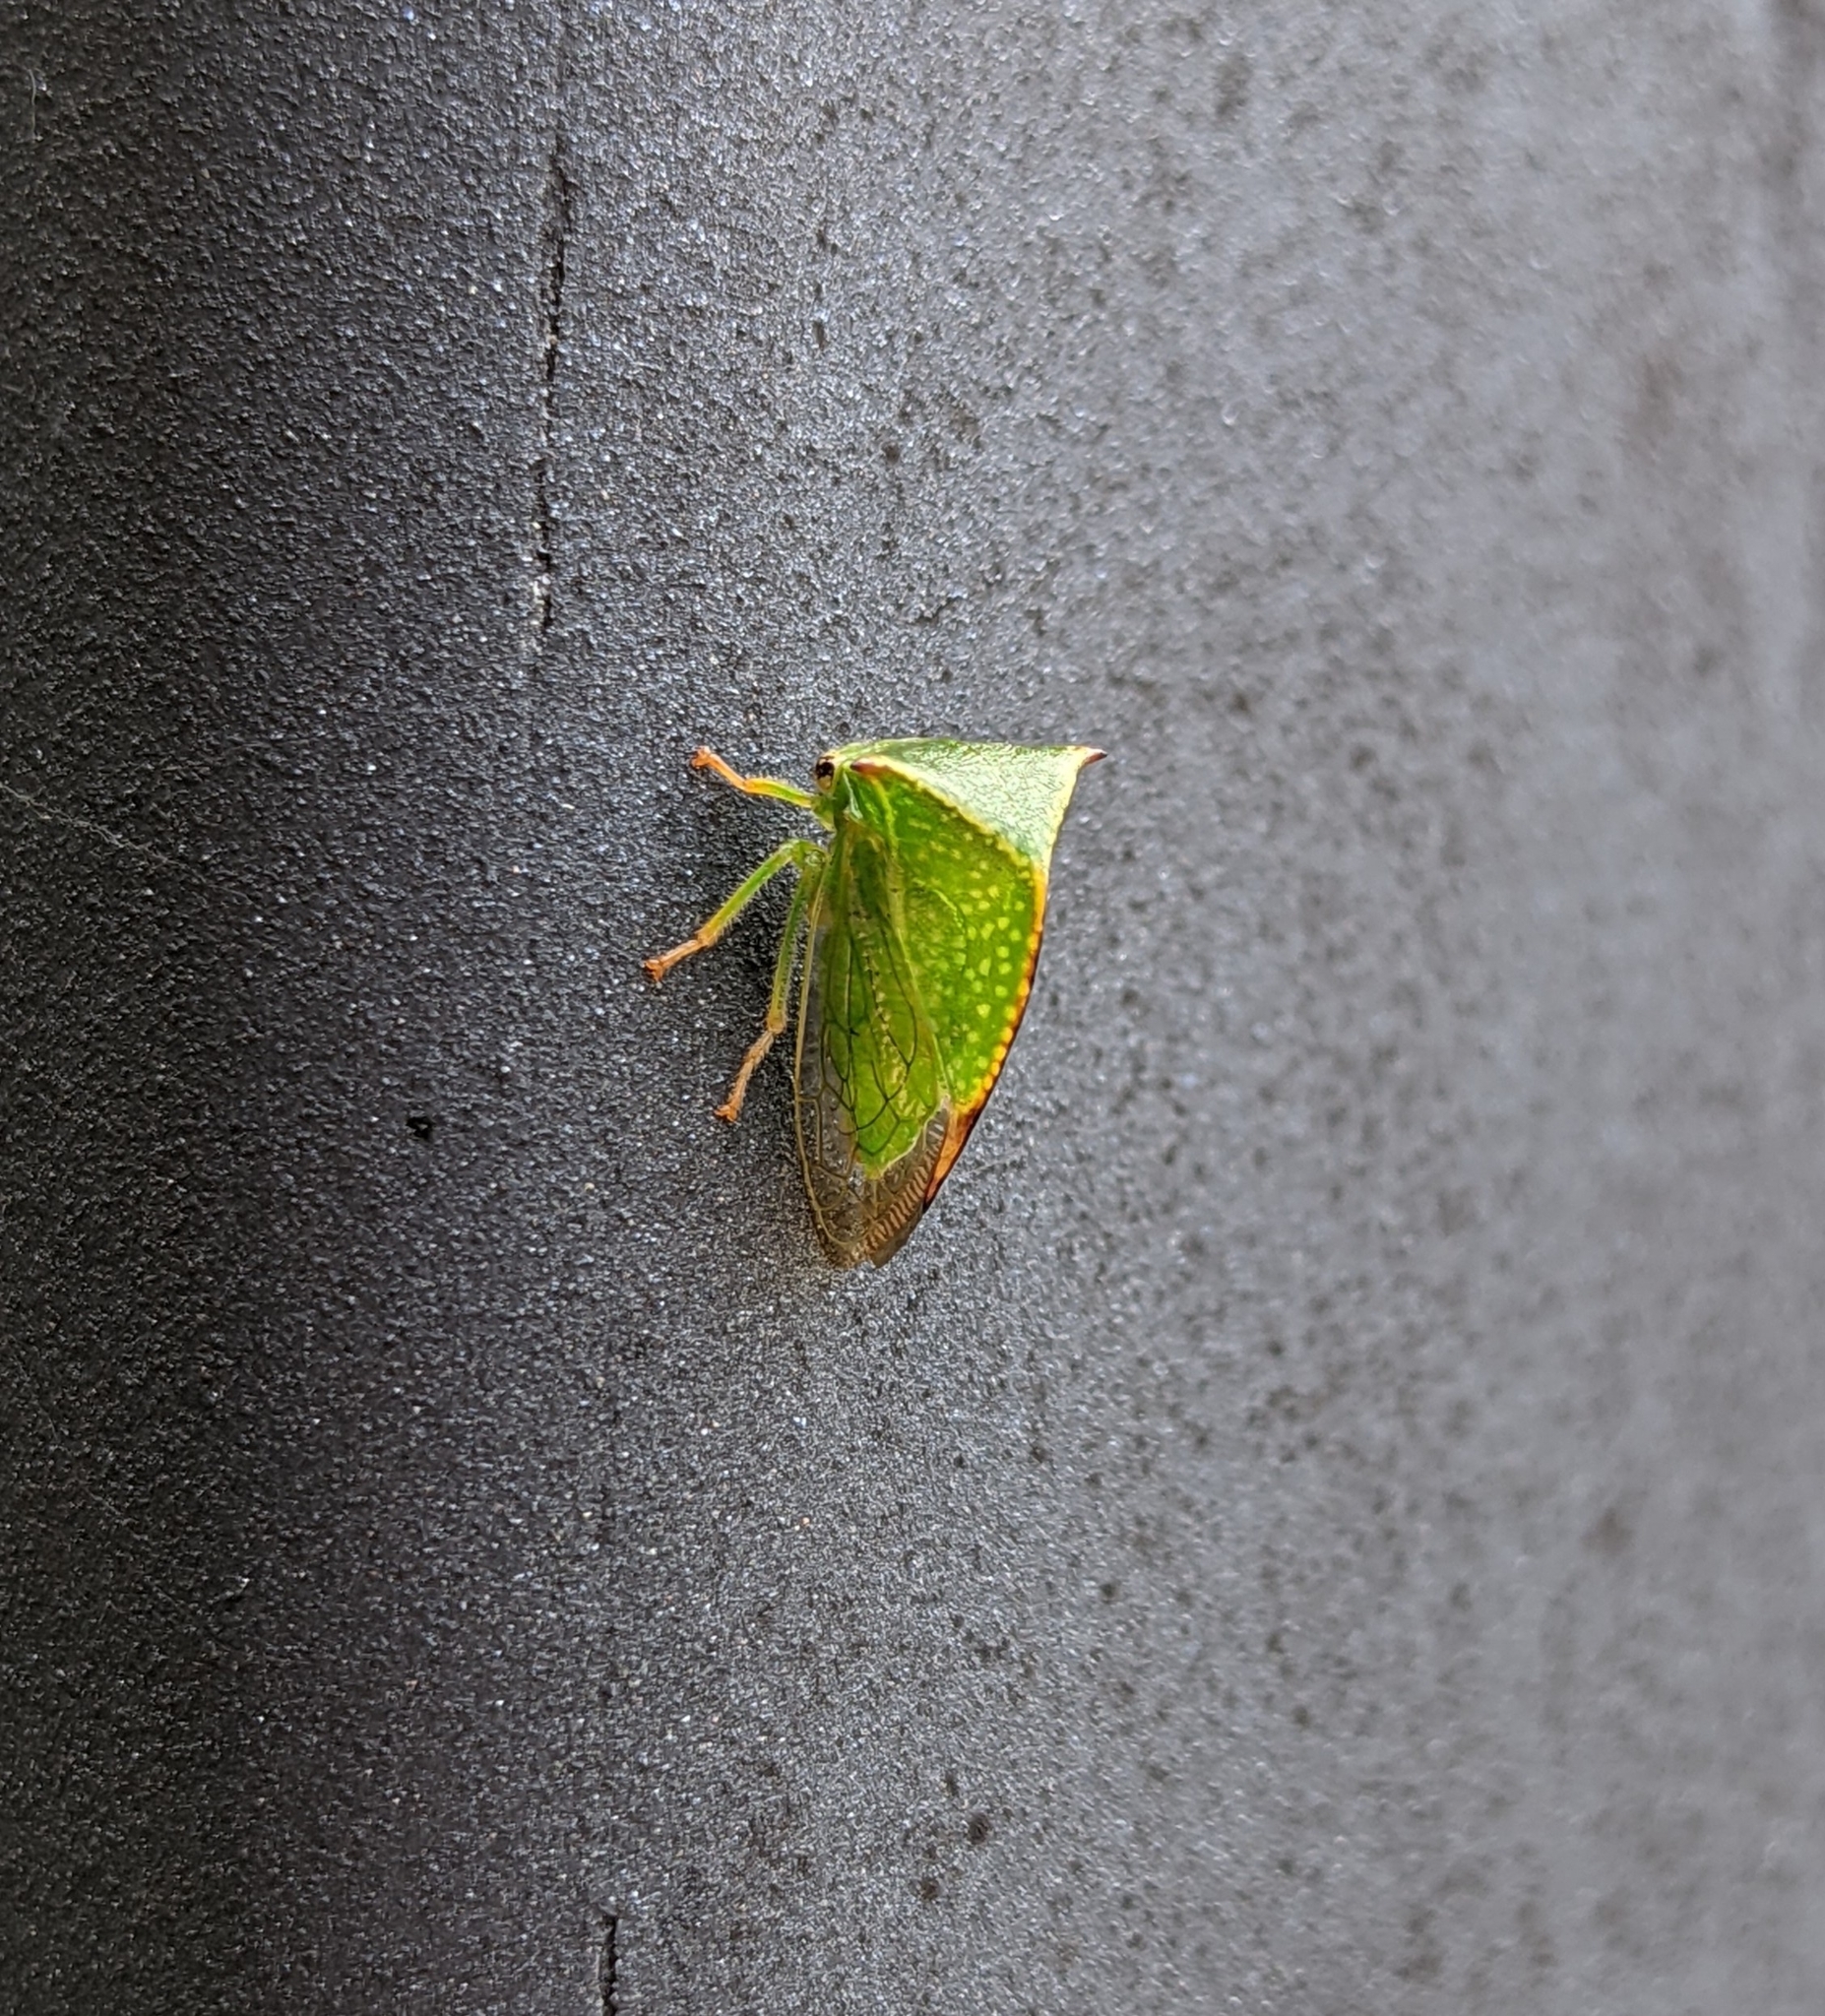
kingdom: Animalia
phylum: Arthropoda
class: Insecta
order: Hemiptera
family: Membracidae
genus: Stictocephala
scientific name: Stictocephala bisonia
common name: American buffalo treehopper
